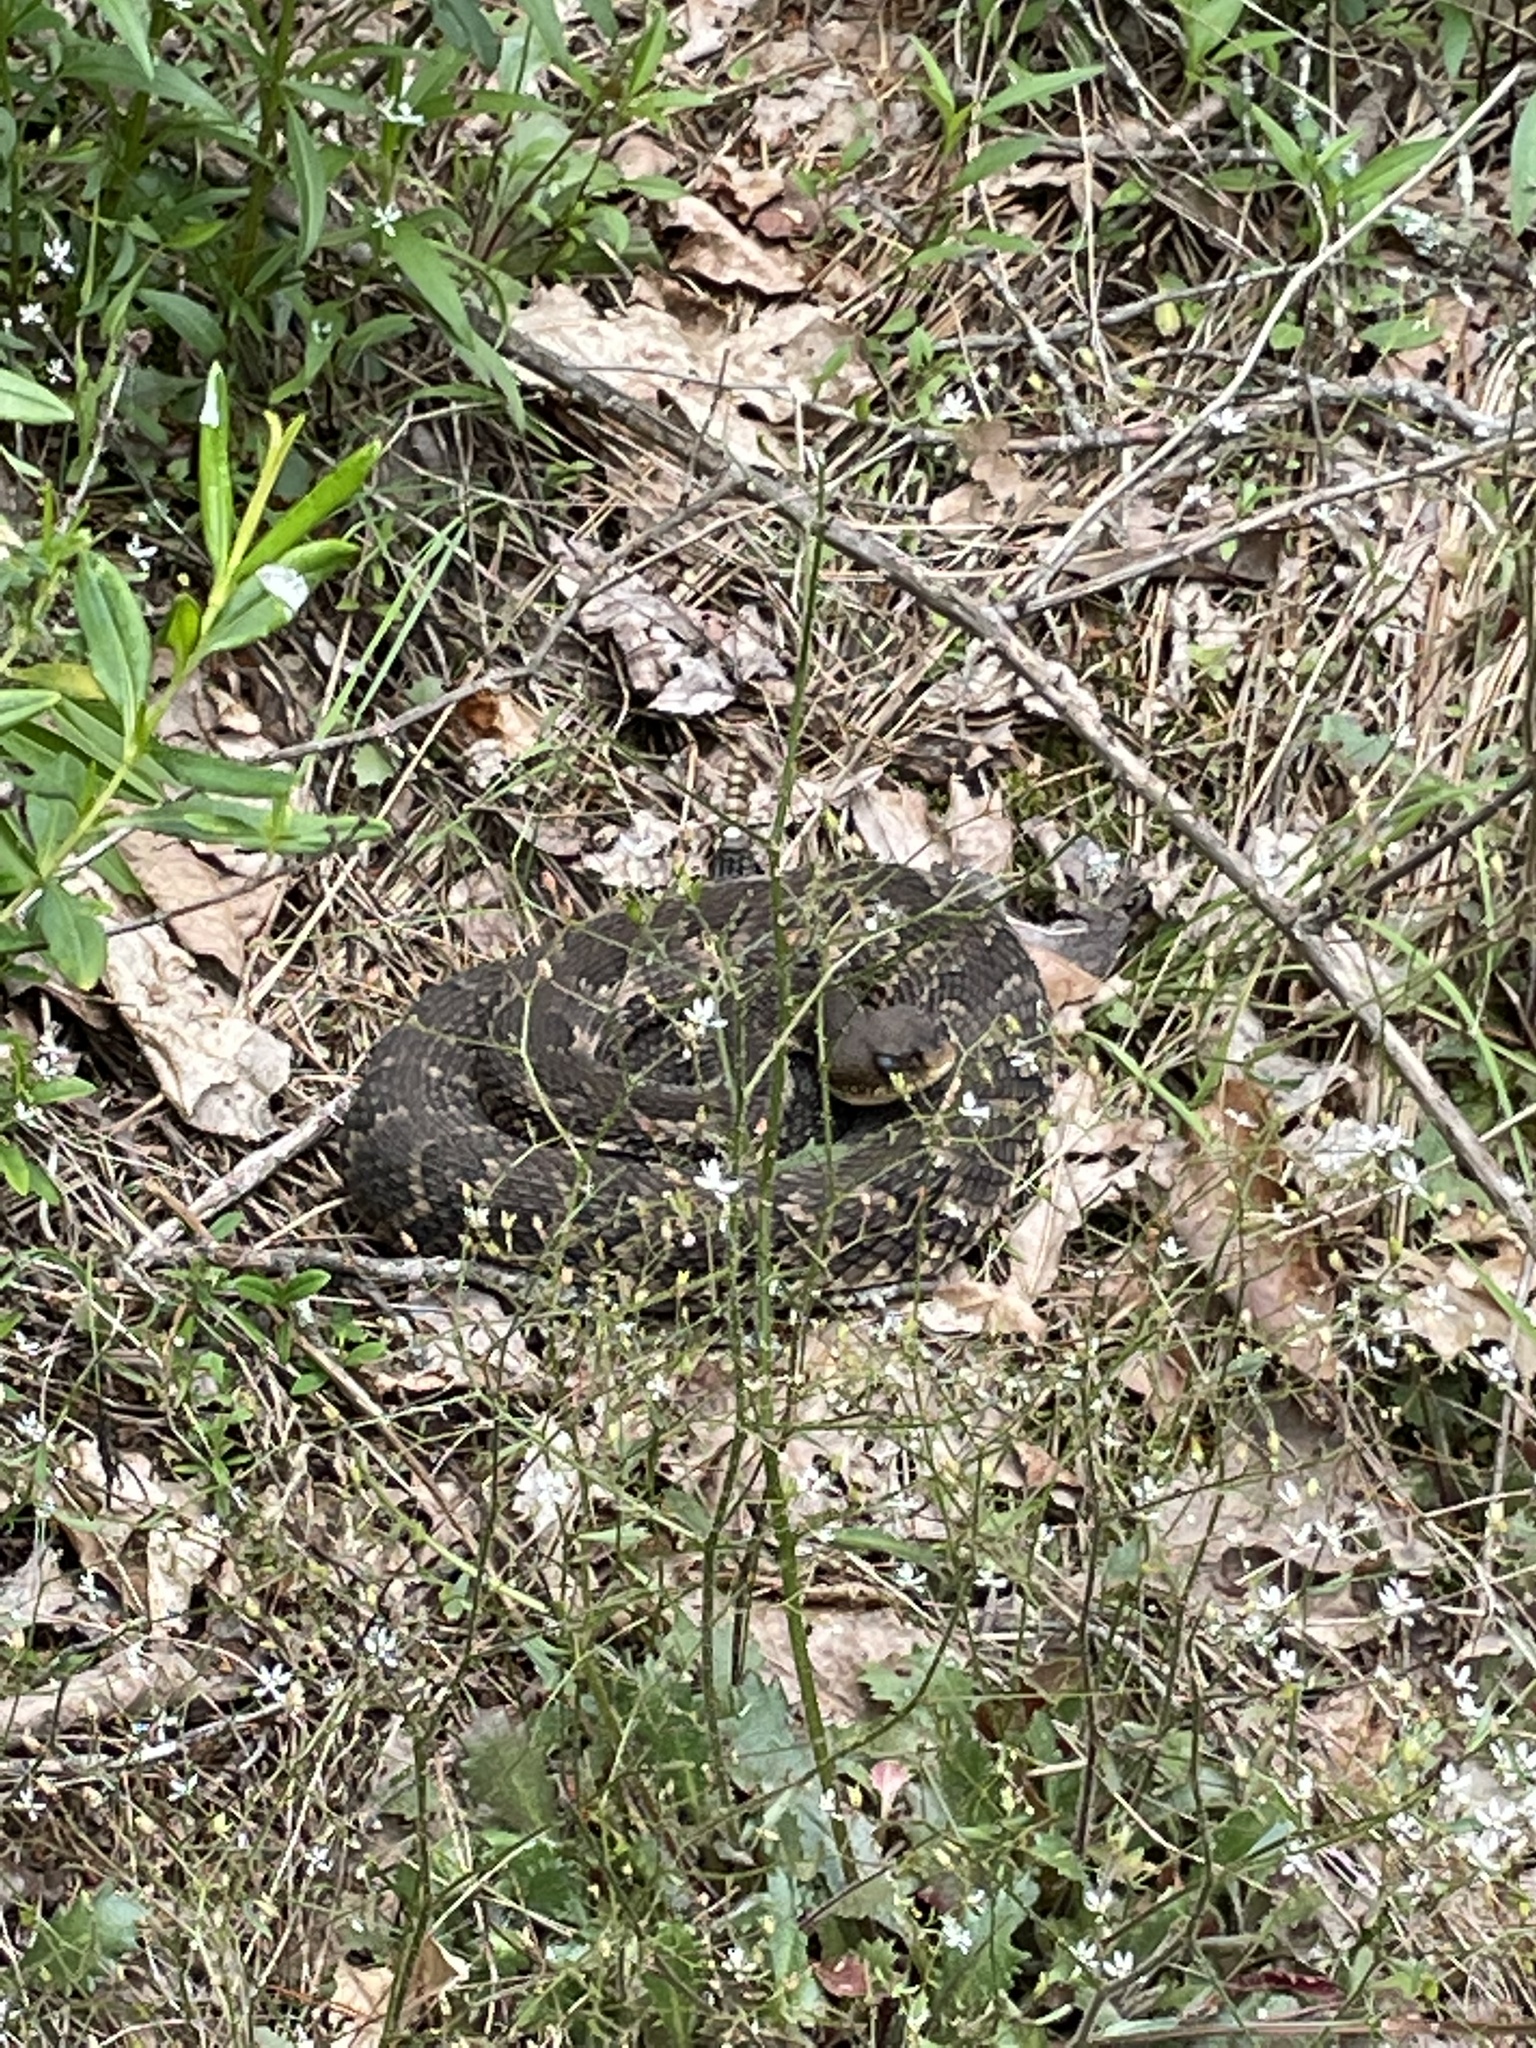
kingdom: Animalia
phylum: Chordata
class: Squamata
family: Viperidae
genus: Crotalus
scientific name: Crotalus horridus
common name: Timber rattlesnake
